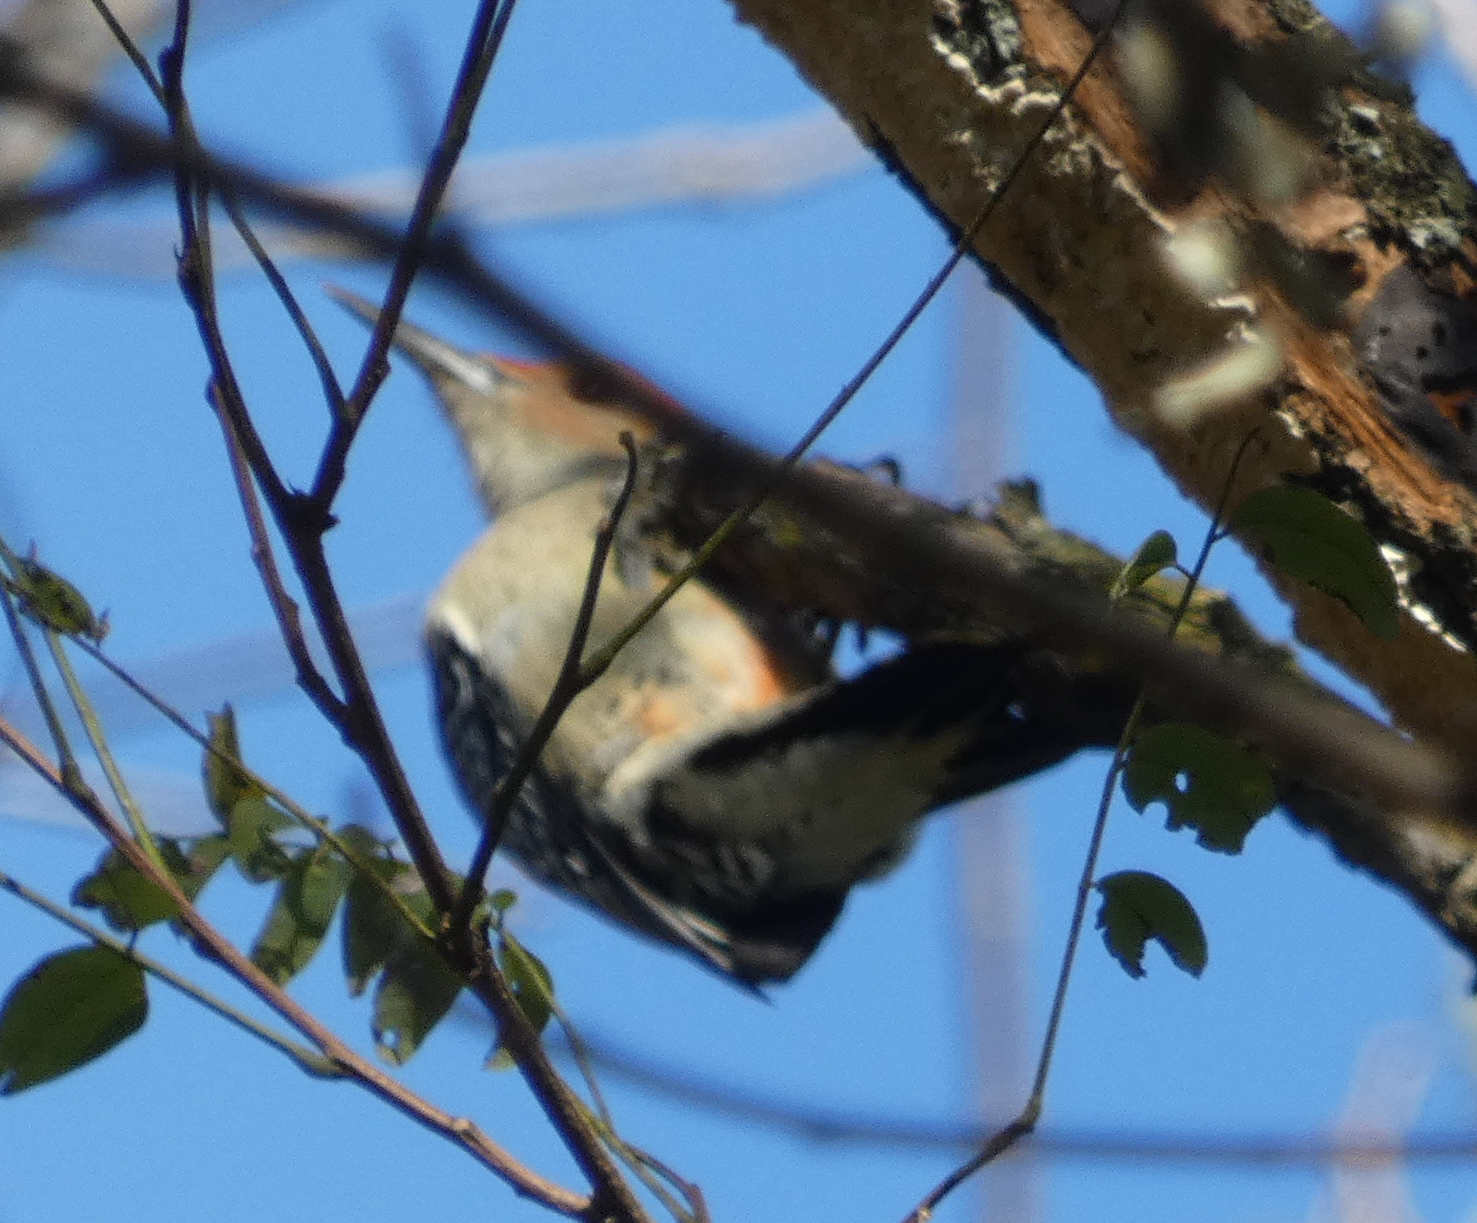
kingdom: Animalia
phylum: Chordata
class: Aves
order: Piciformes
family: Picidae
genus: Melanerpes
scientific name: Melanerpes carolinus
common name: Red-bellied woodpecker
